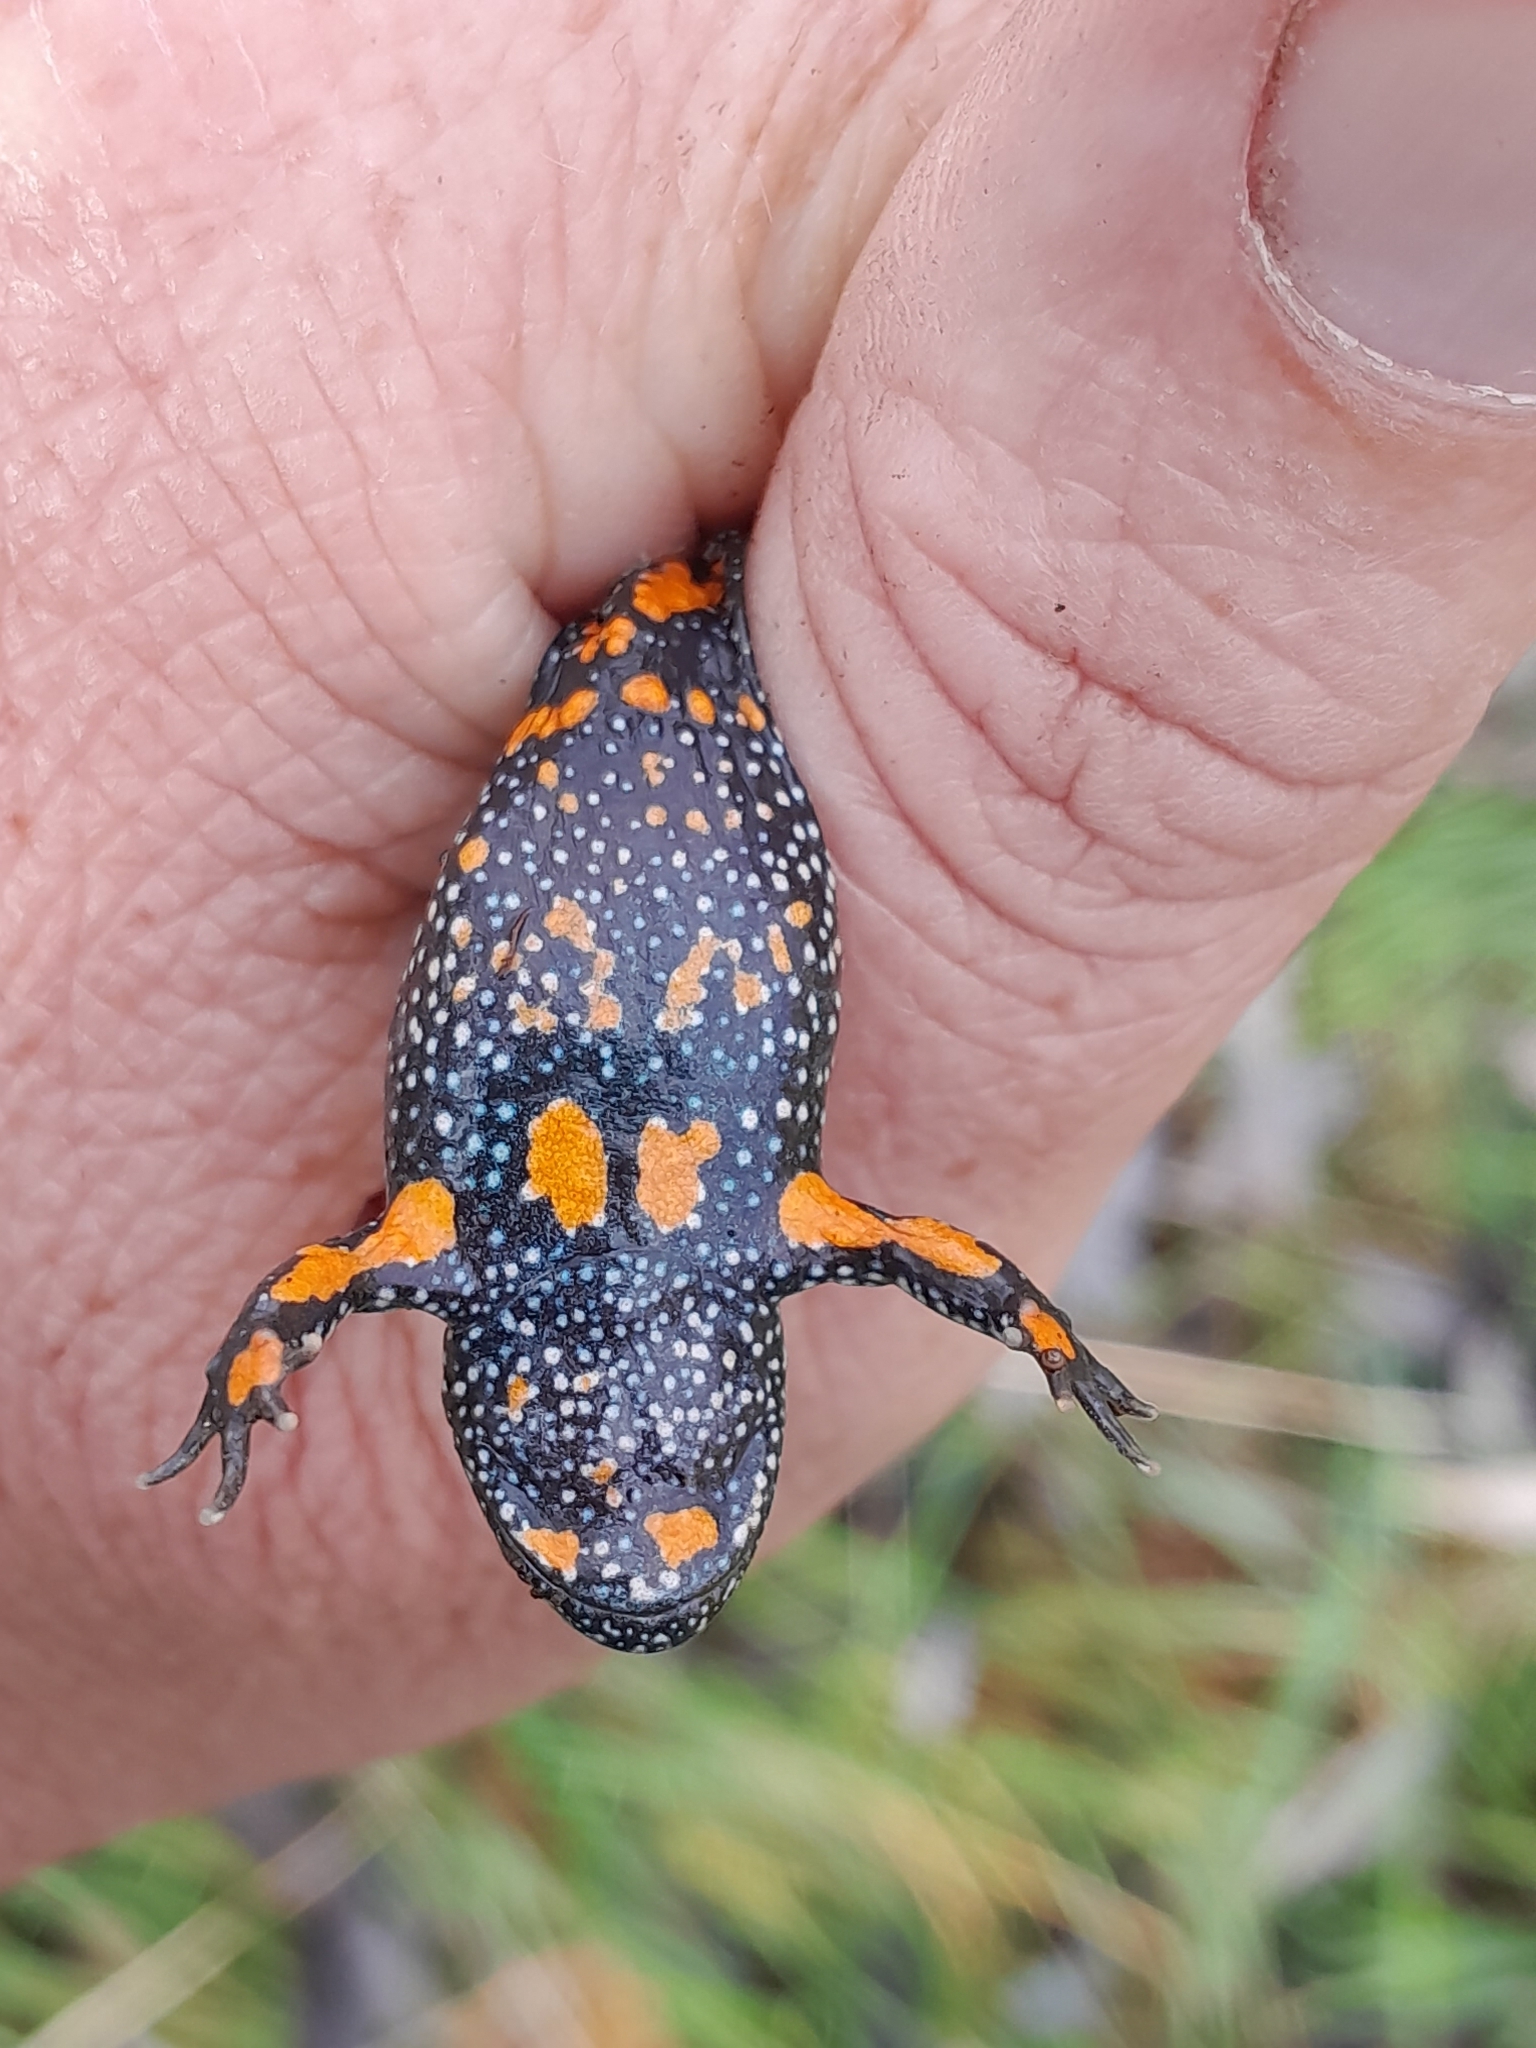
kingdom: Animalia
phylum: Chordata
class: Amphibia
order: Anura
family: Bombinatoridae
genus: Bombina
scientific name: Bombina bombina
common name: Fire-bellied toad
